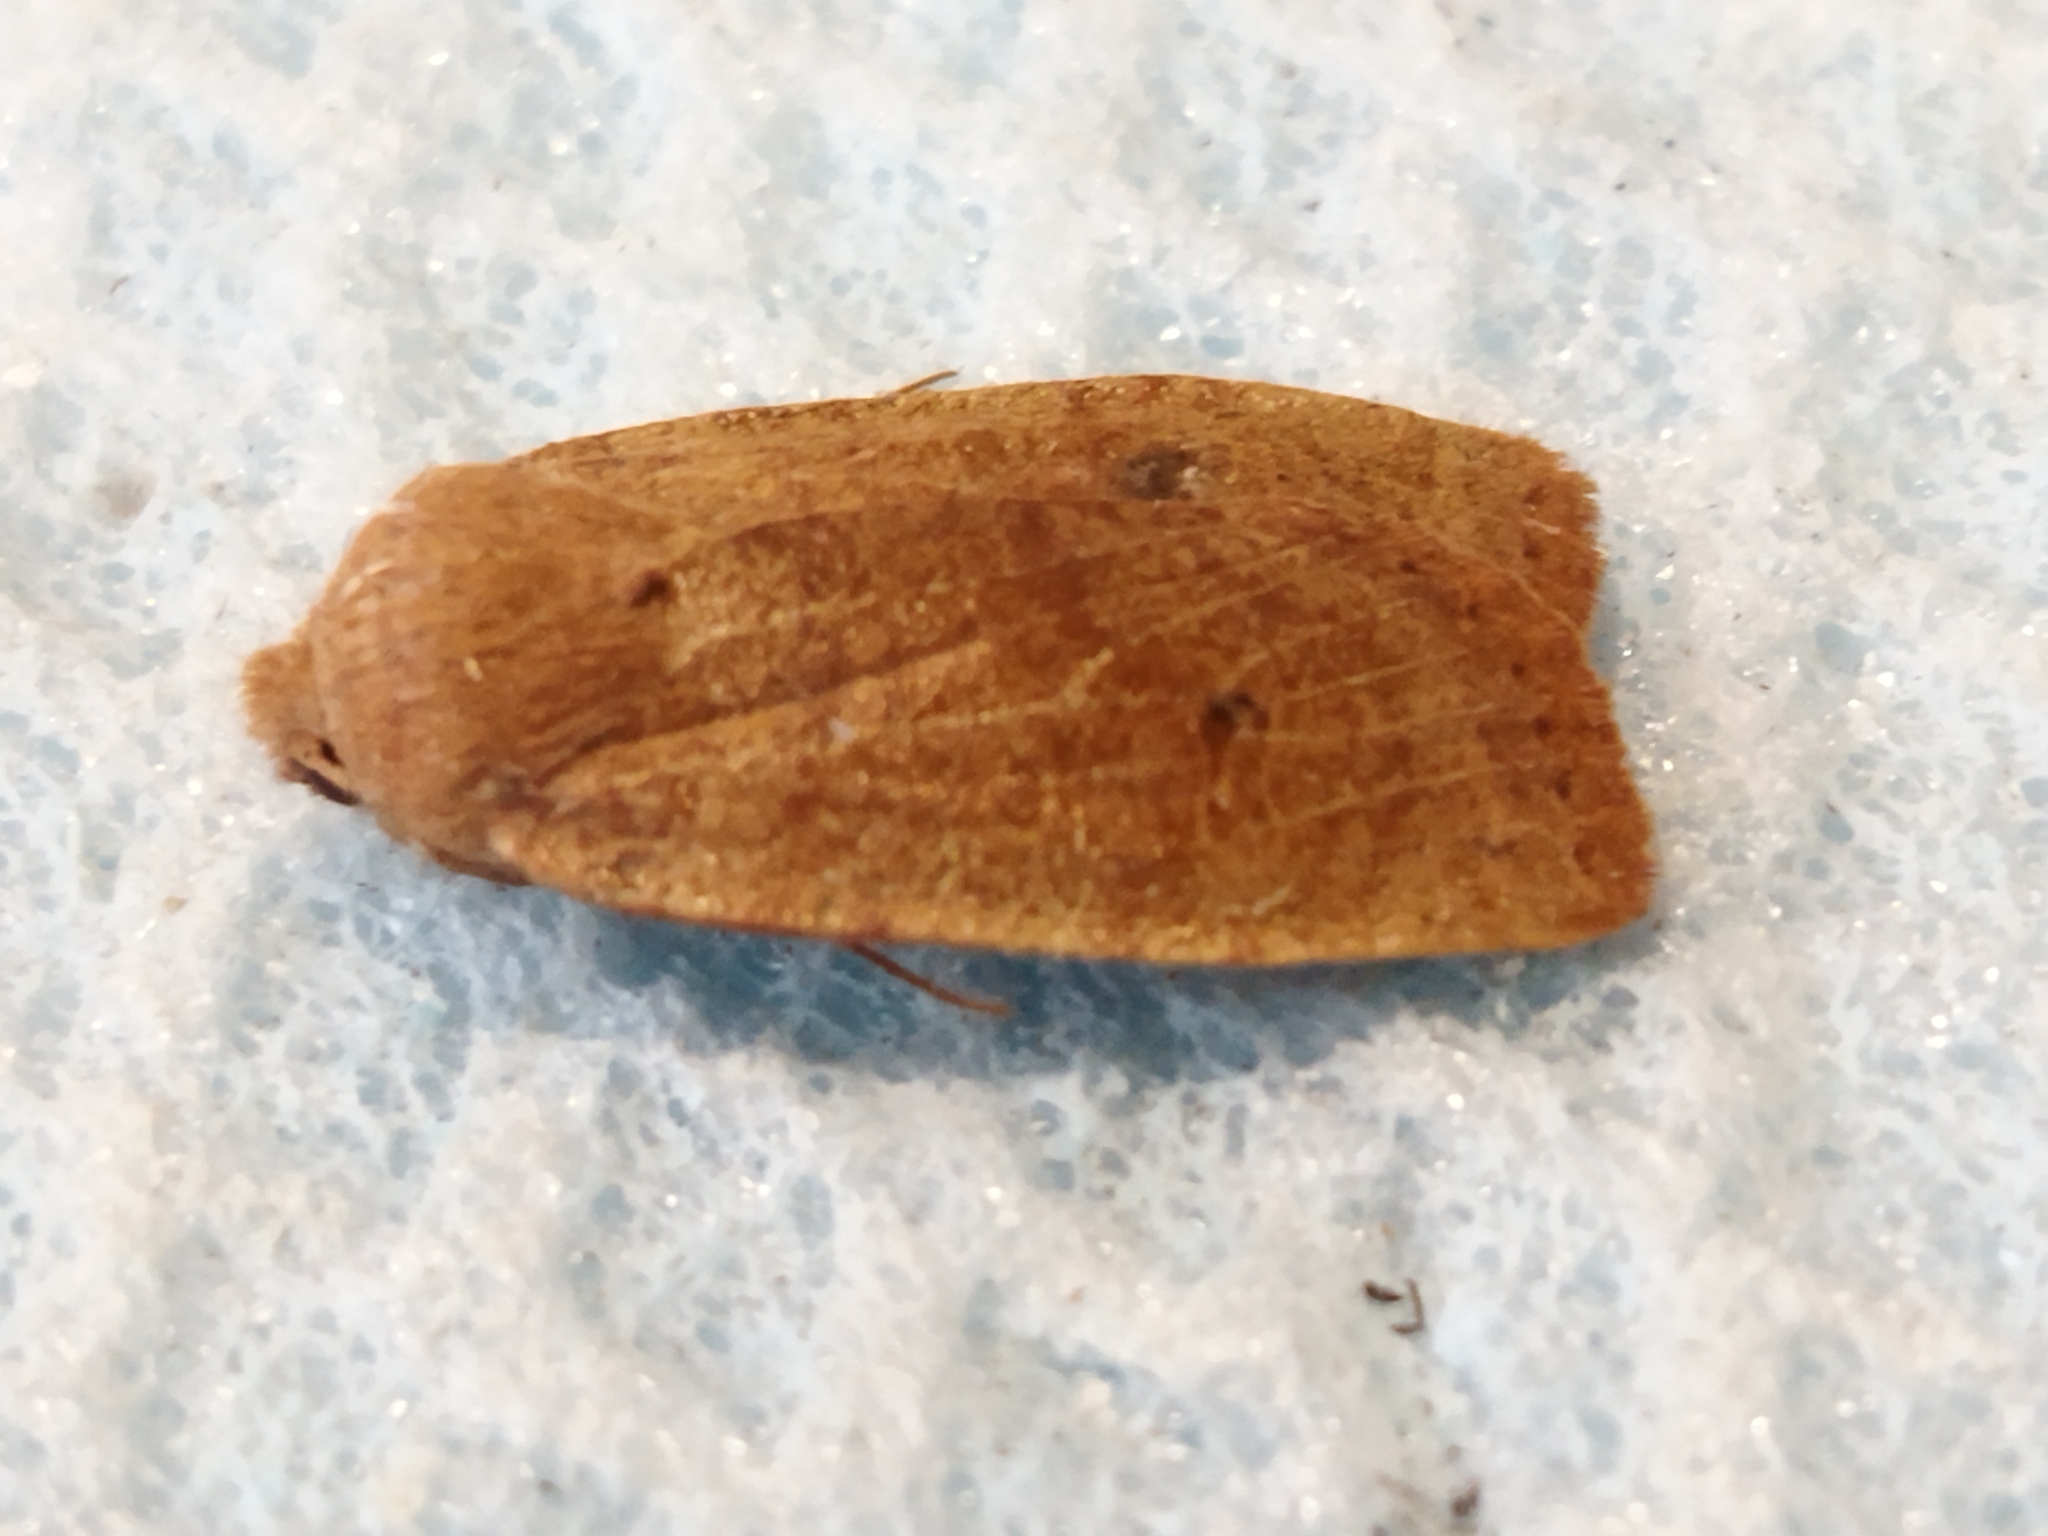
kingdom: Animalia
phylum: Arthropoda
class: Insecta
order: Lepidoptera
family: Noctuidae
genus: Conistra
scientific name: Conistra
